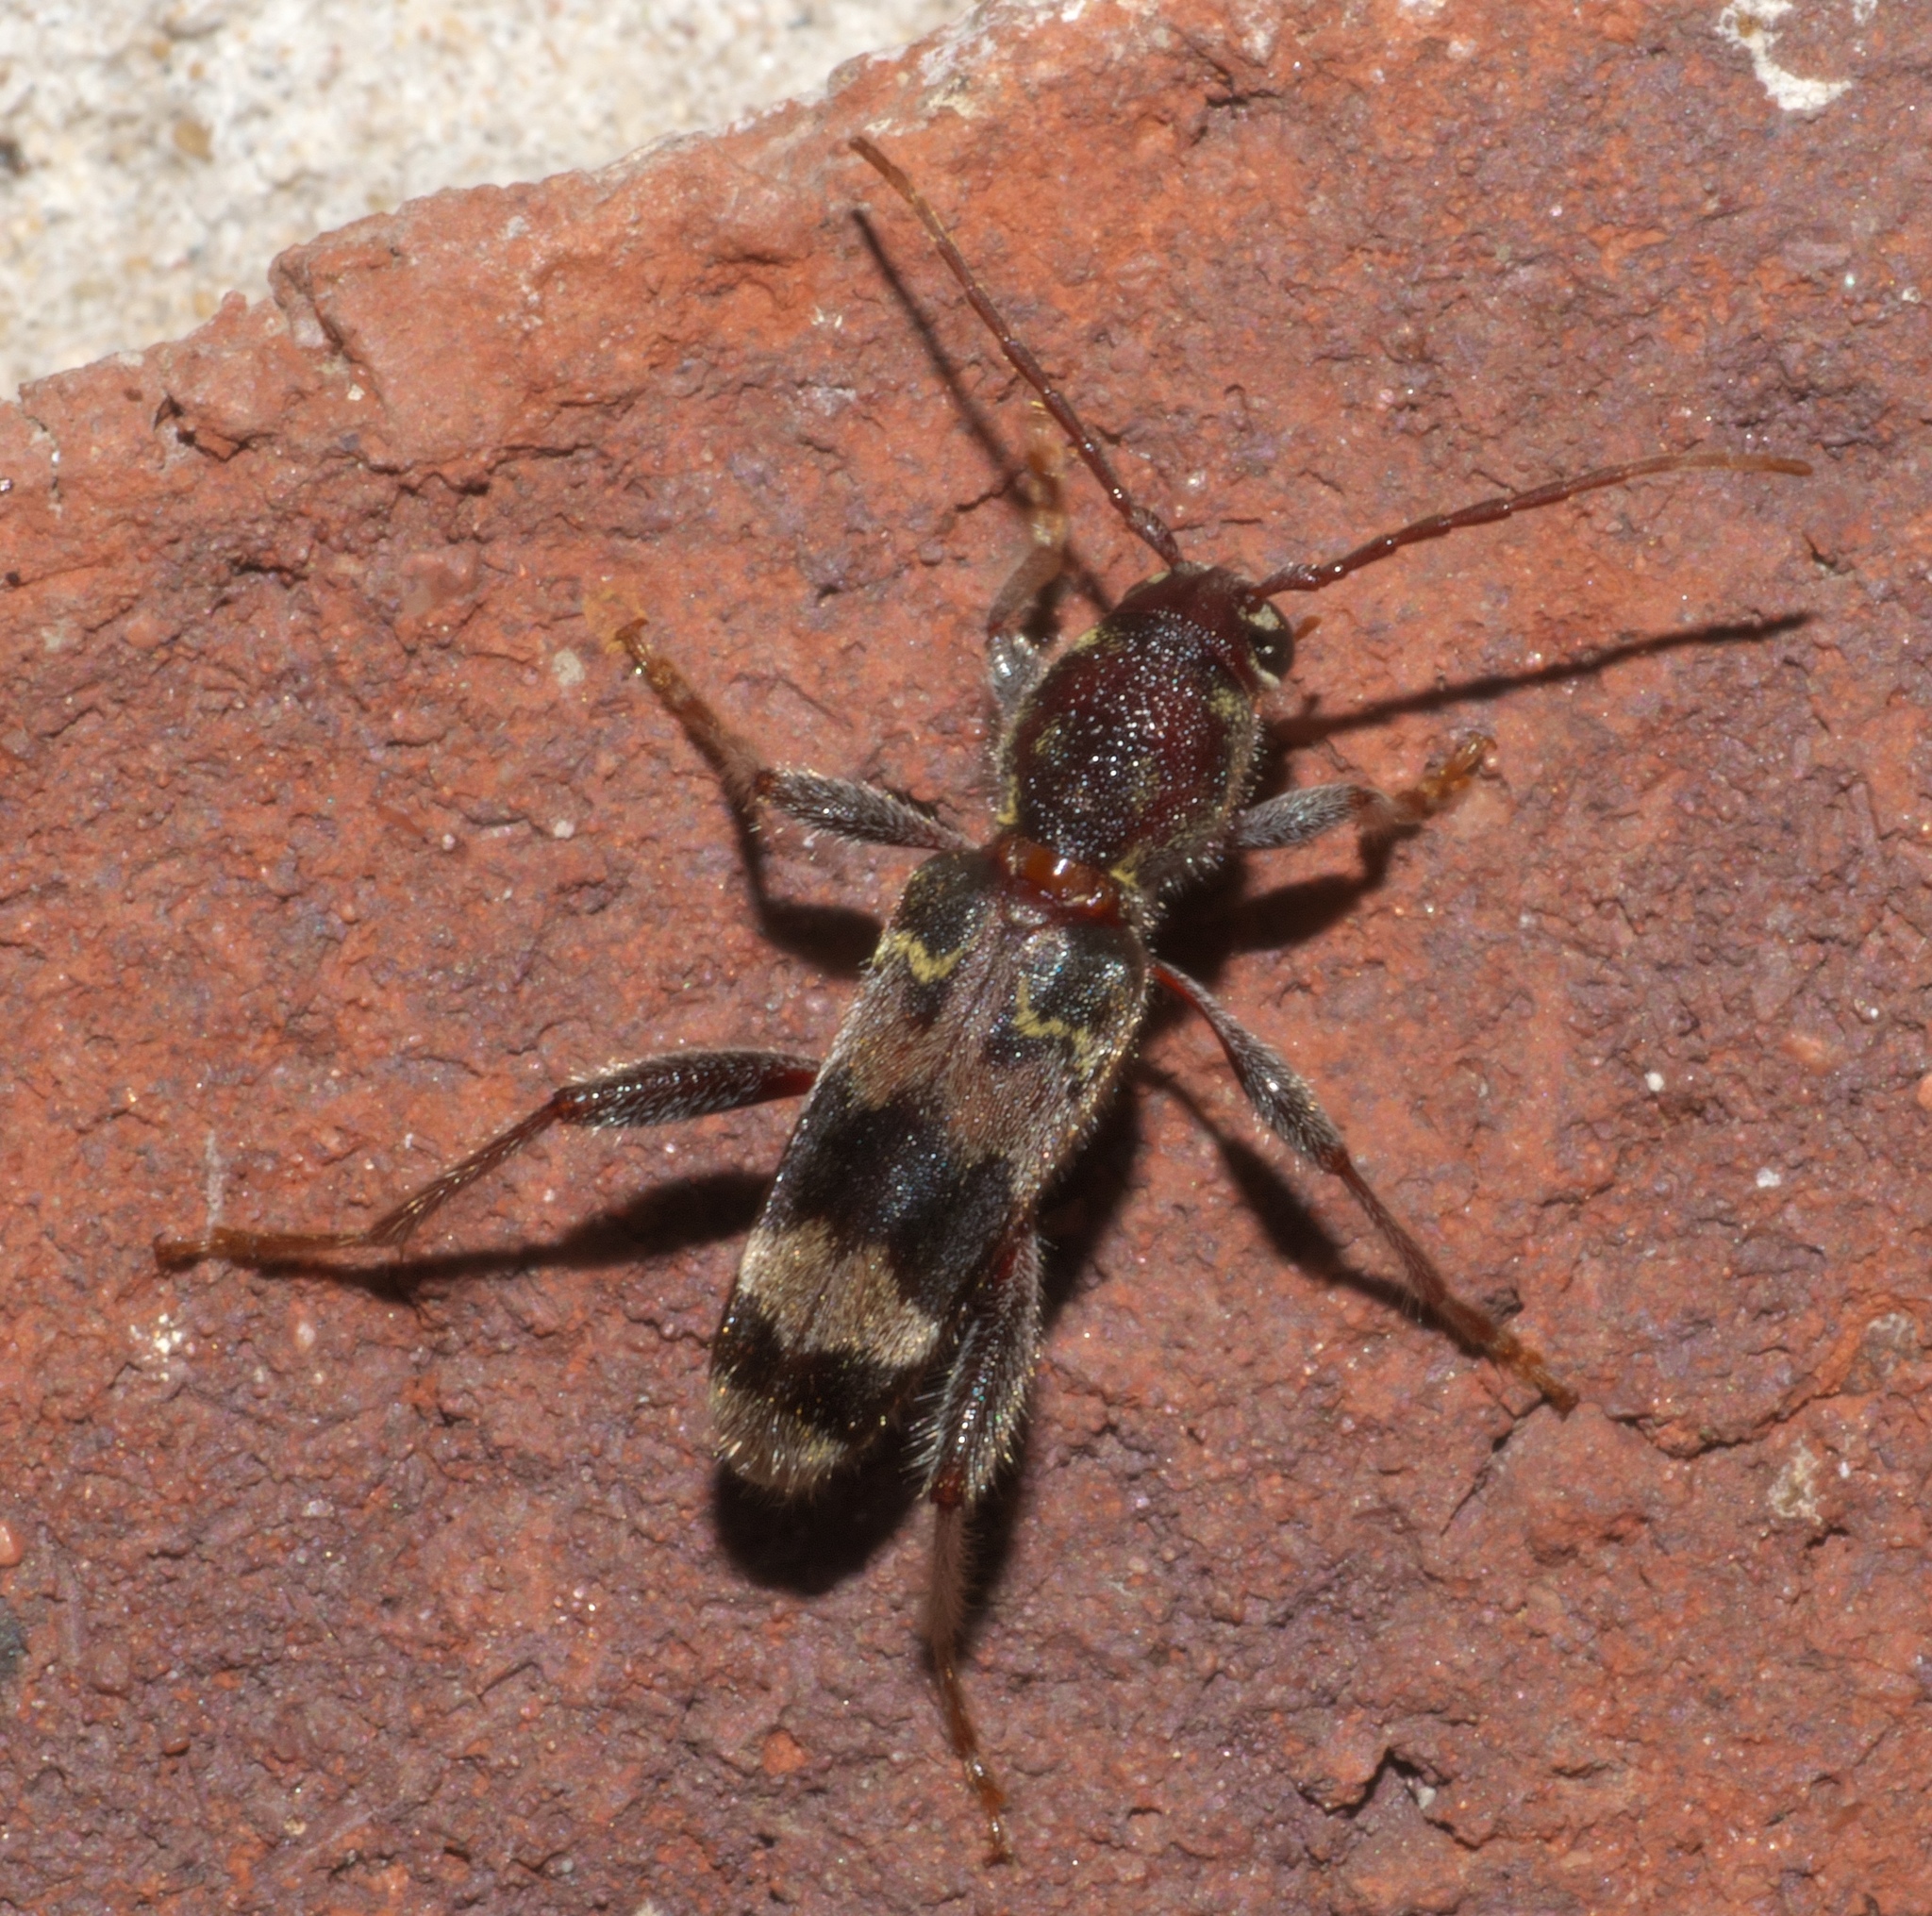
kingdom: Animalia
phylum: Arthropoda
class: Insecta
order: Coleoptera
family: Cerambycidae
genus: Xylotrechus
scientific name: Xylotrechus colonus
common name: Long-horned beetle
